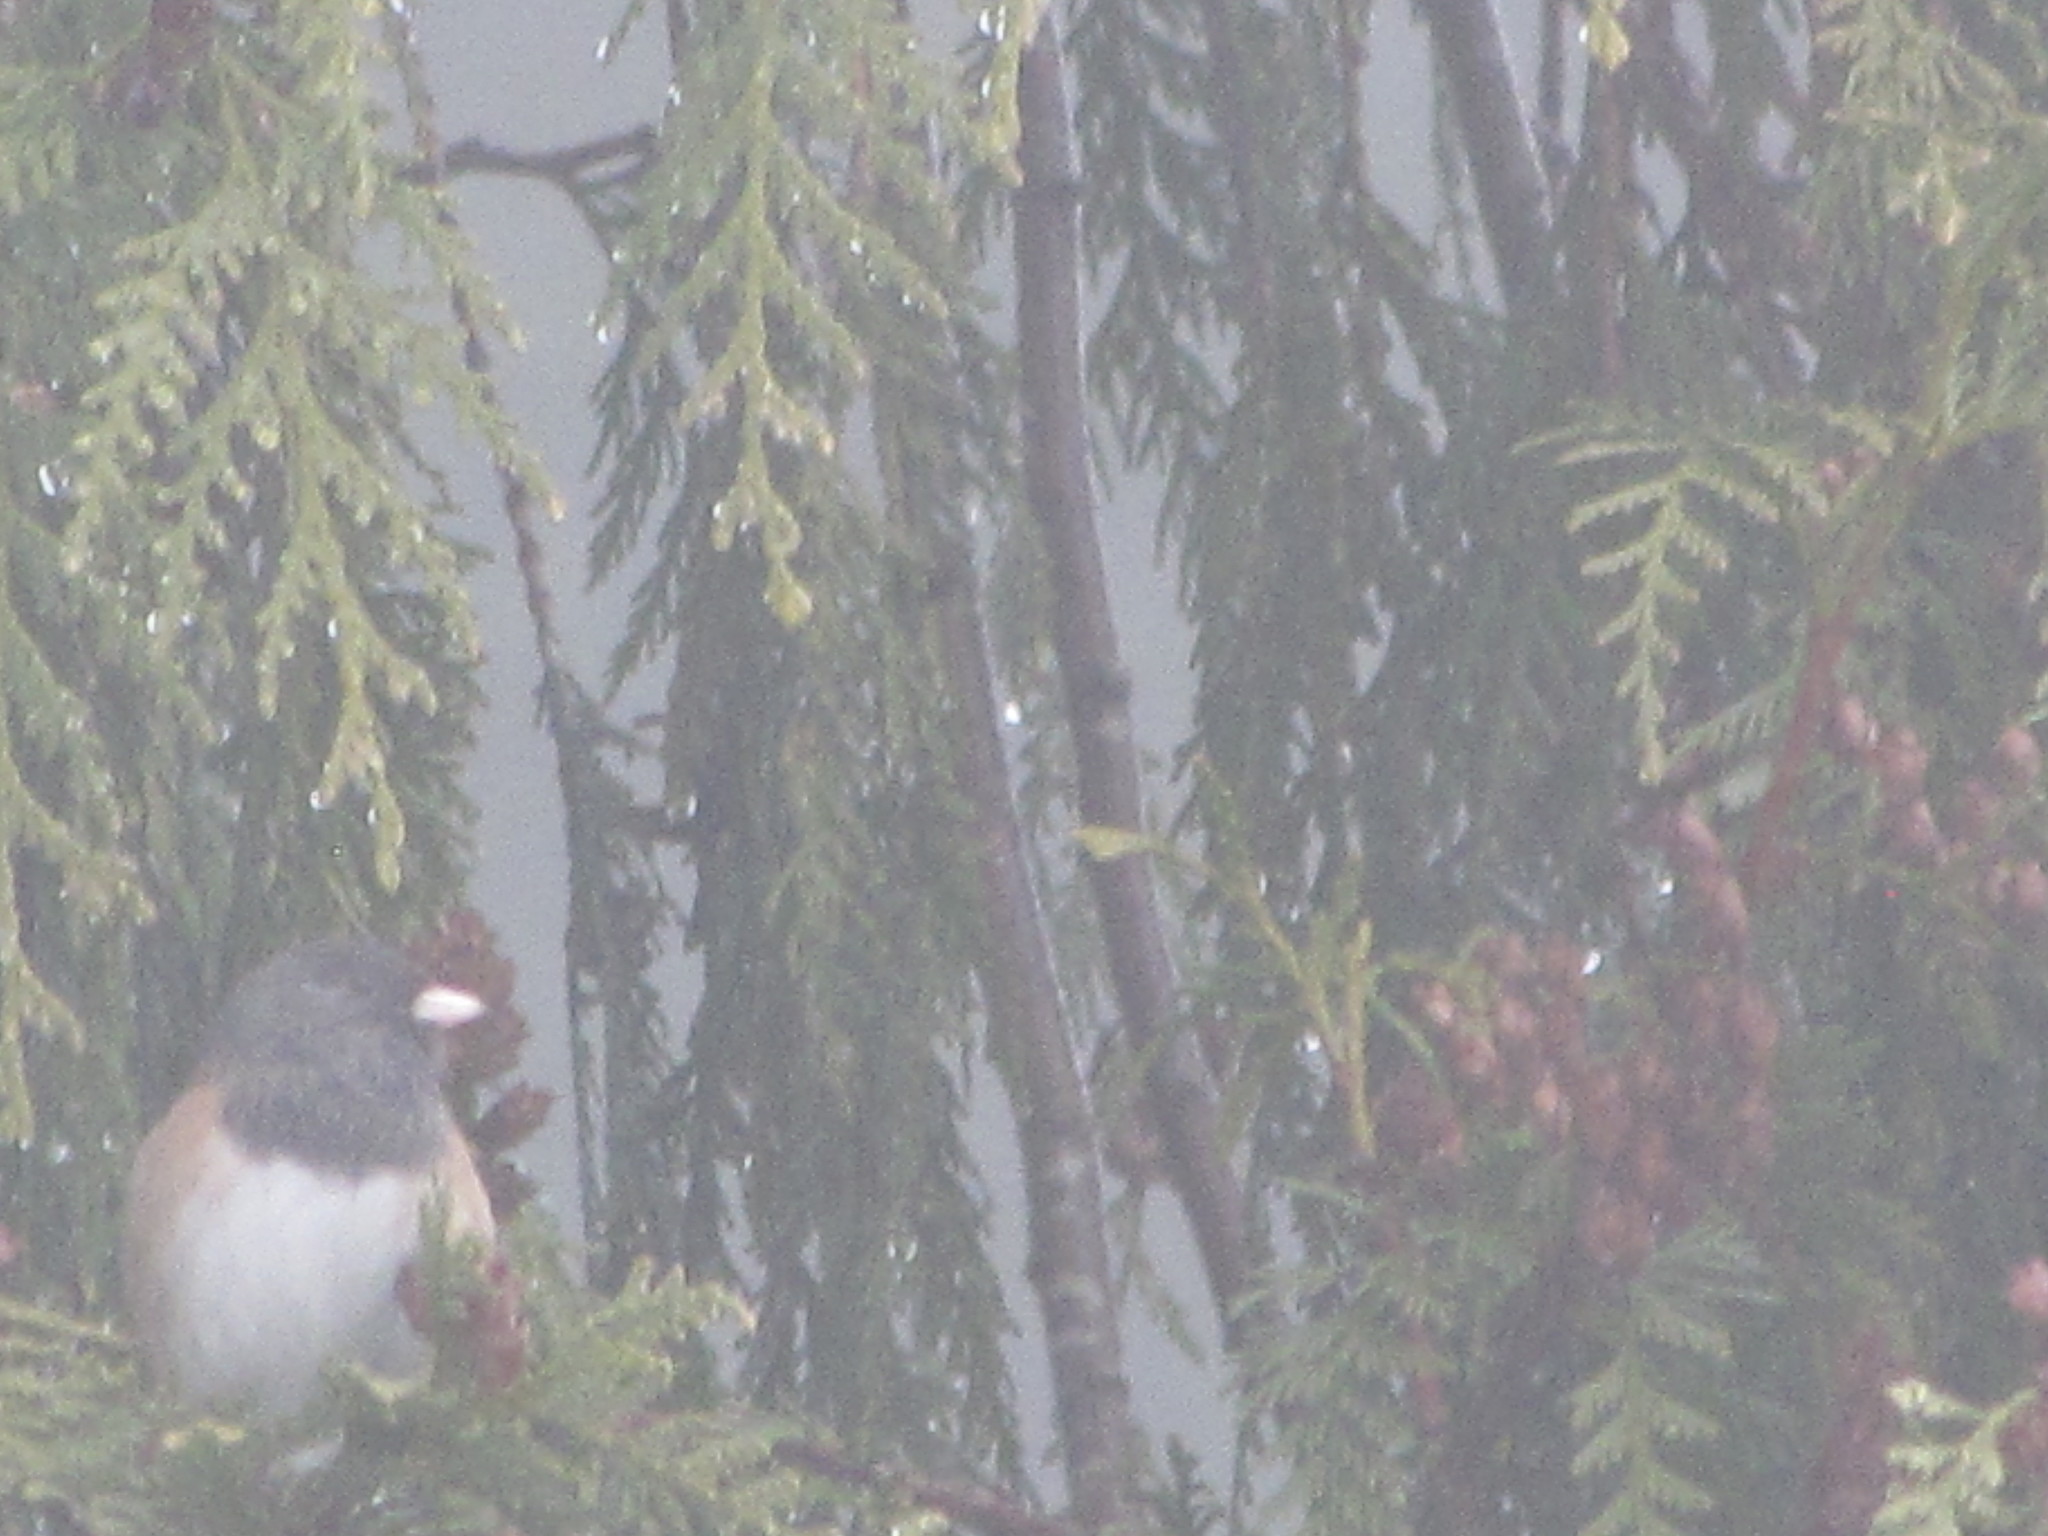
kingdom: Animalia
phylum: Chordata
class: Aves
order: Passeriformes
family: Passerellidae
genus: Junco
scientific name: Junco hyemalis
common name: Dark-eyed junco
